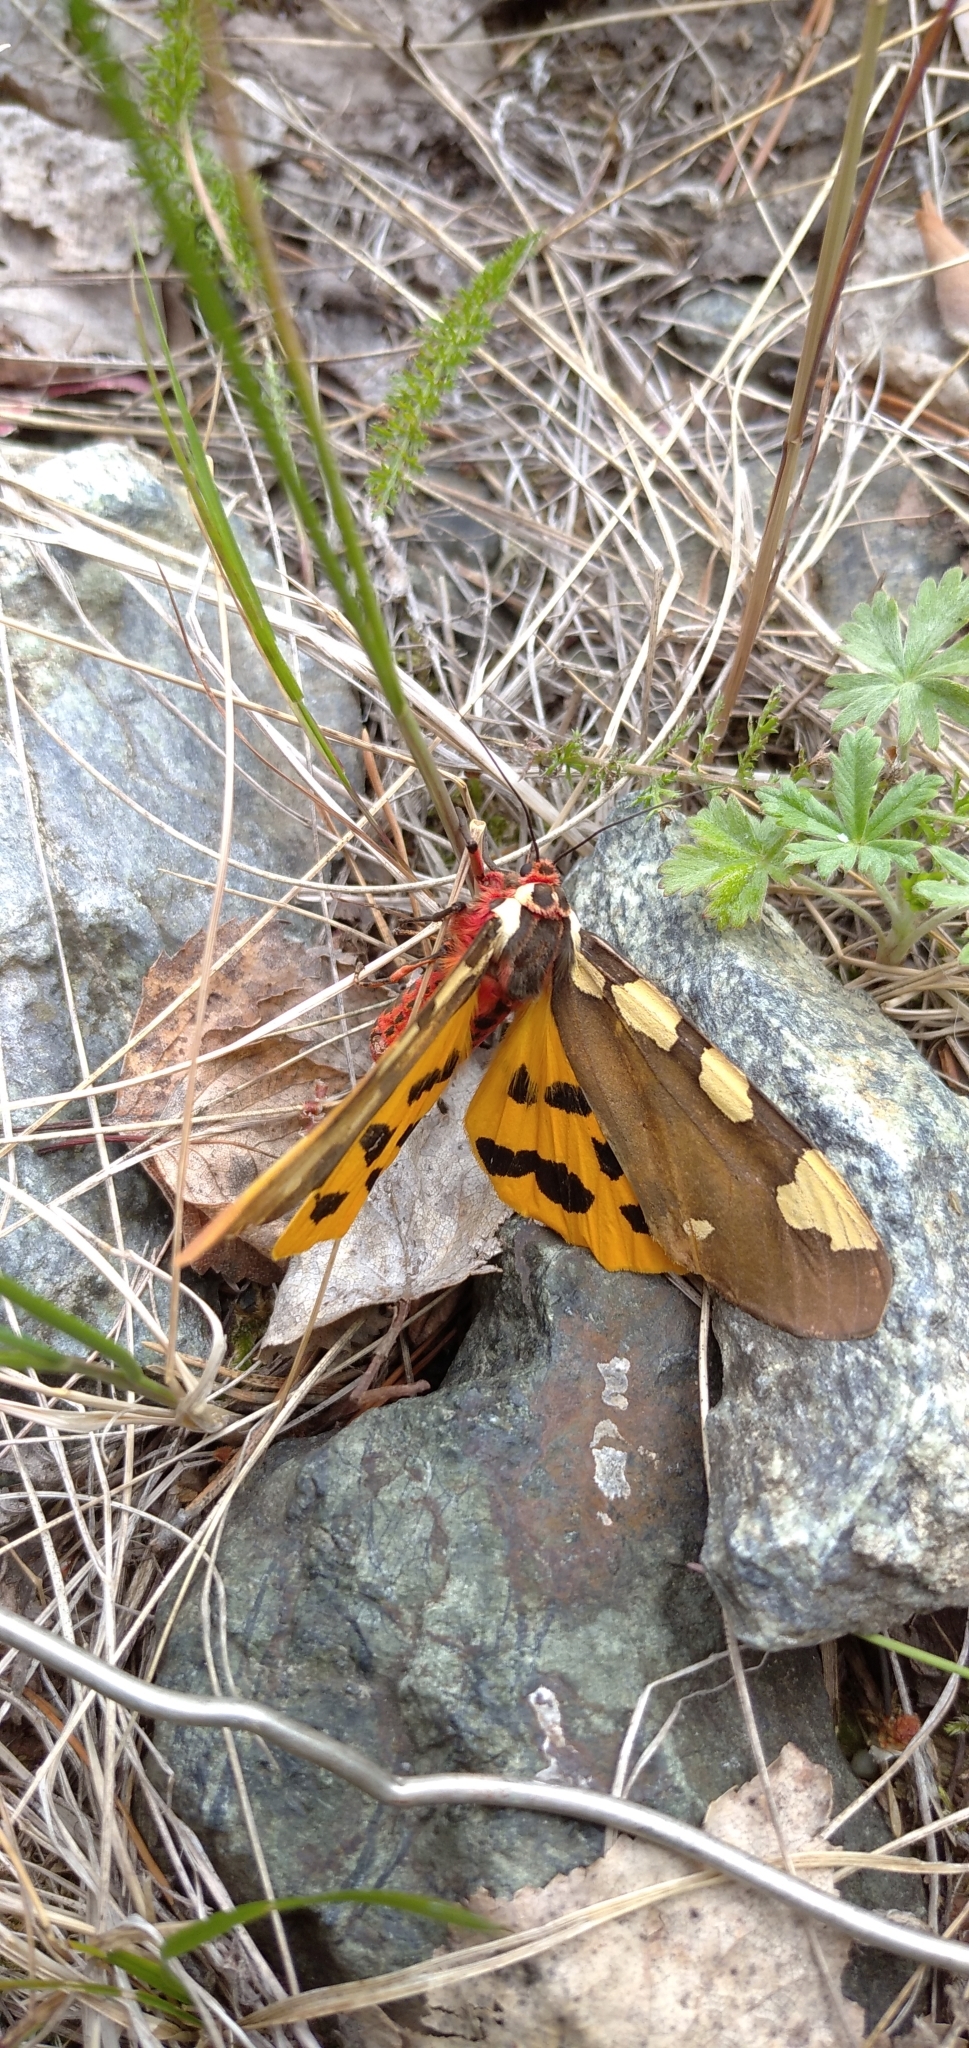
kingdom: Animalia
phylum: Arthropoda
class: Insecta
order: Lepidoptera
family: Erebidae
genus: Pericallia
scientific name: Pericallia matronula
